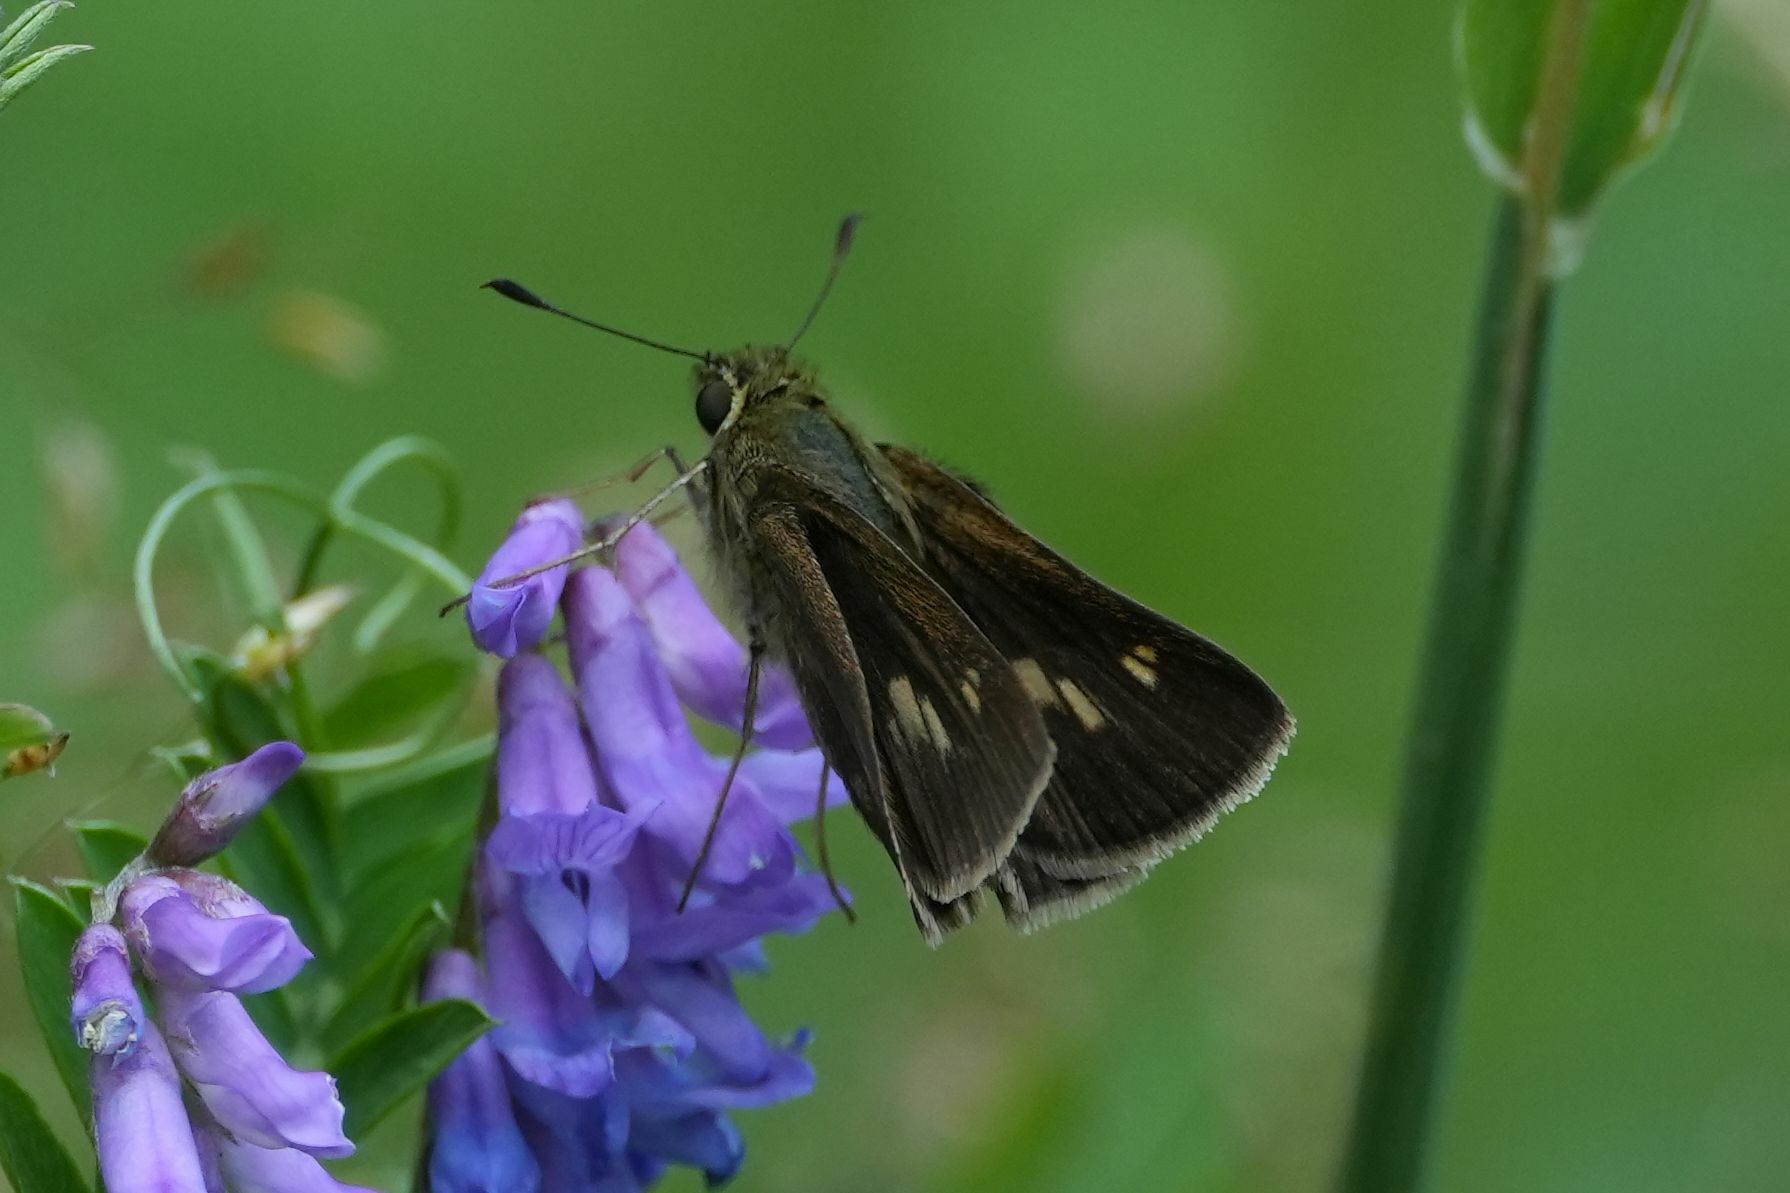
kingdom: Animalia
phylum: Arthropoda
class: Insecta
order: Lepidoptera
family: Hesperiidae
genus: Polites
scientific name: Polites egeremet
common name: Northern broken-dash
